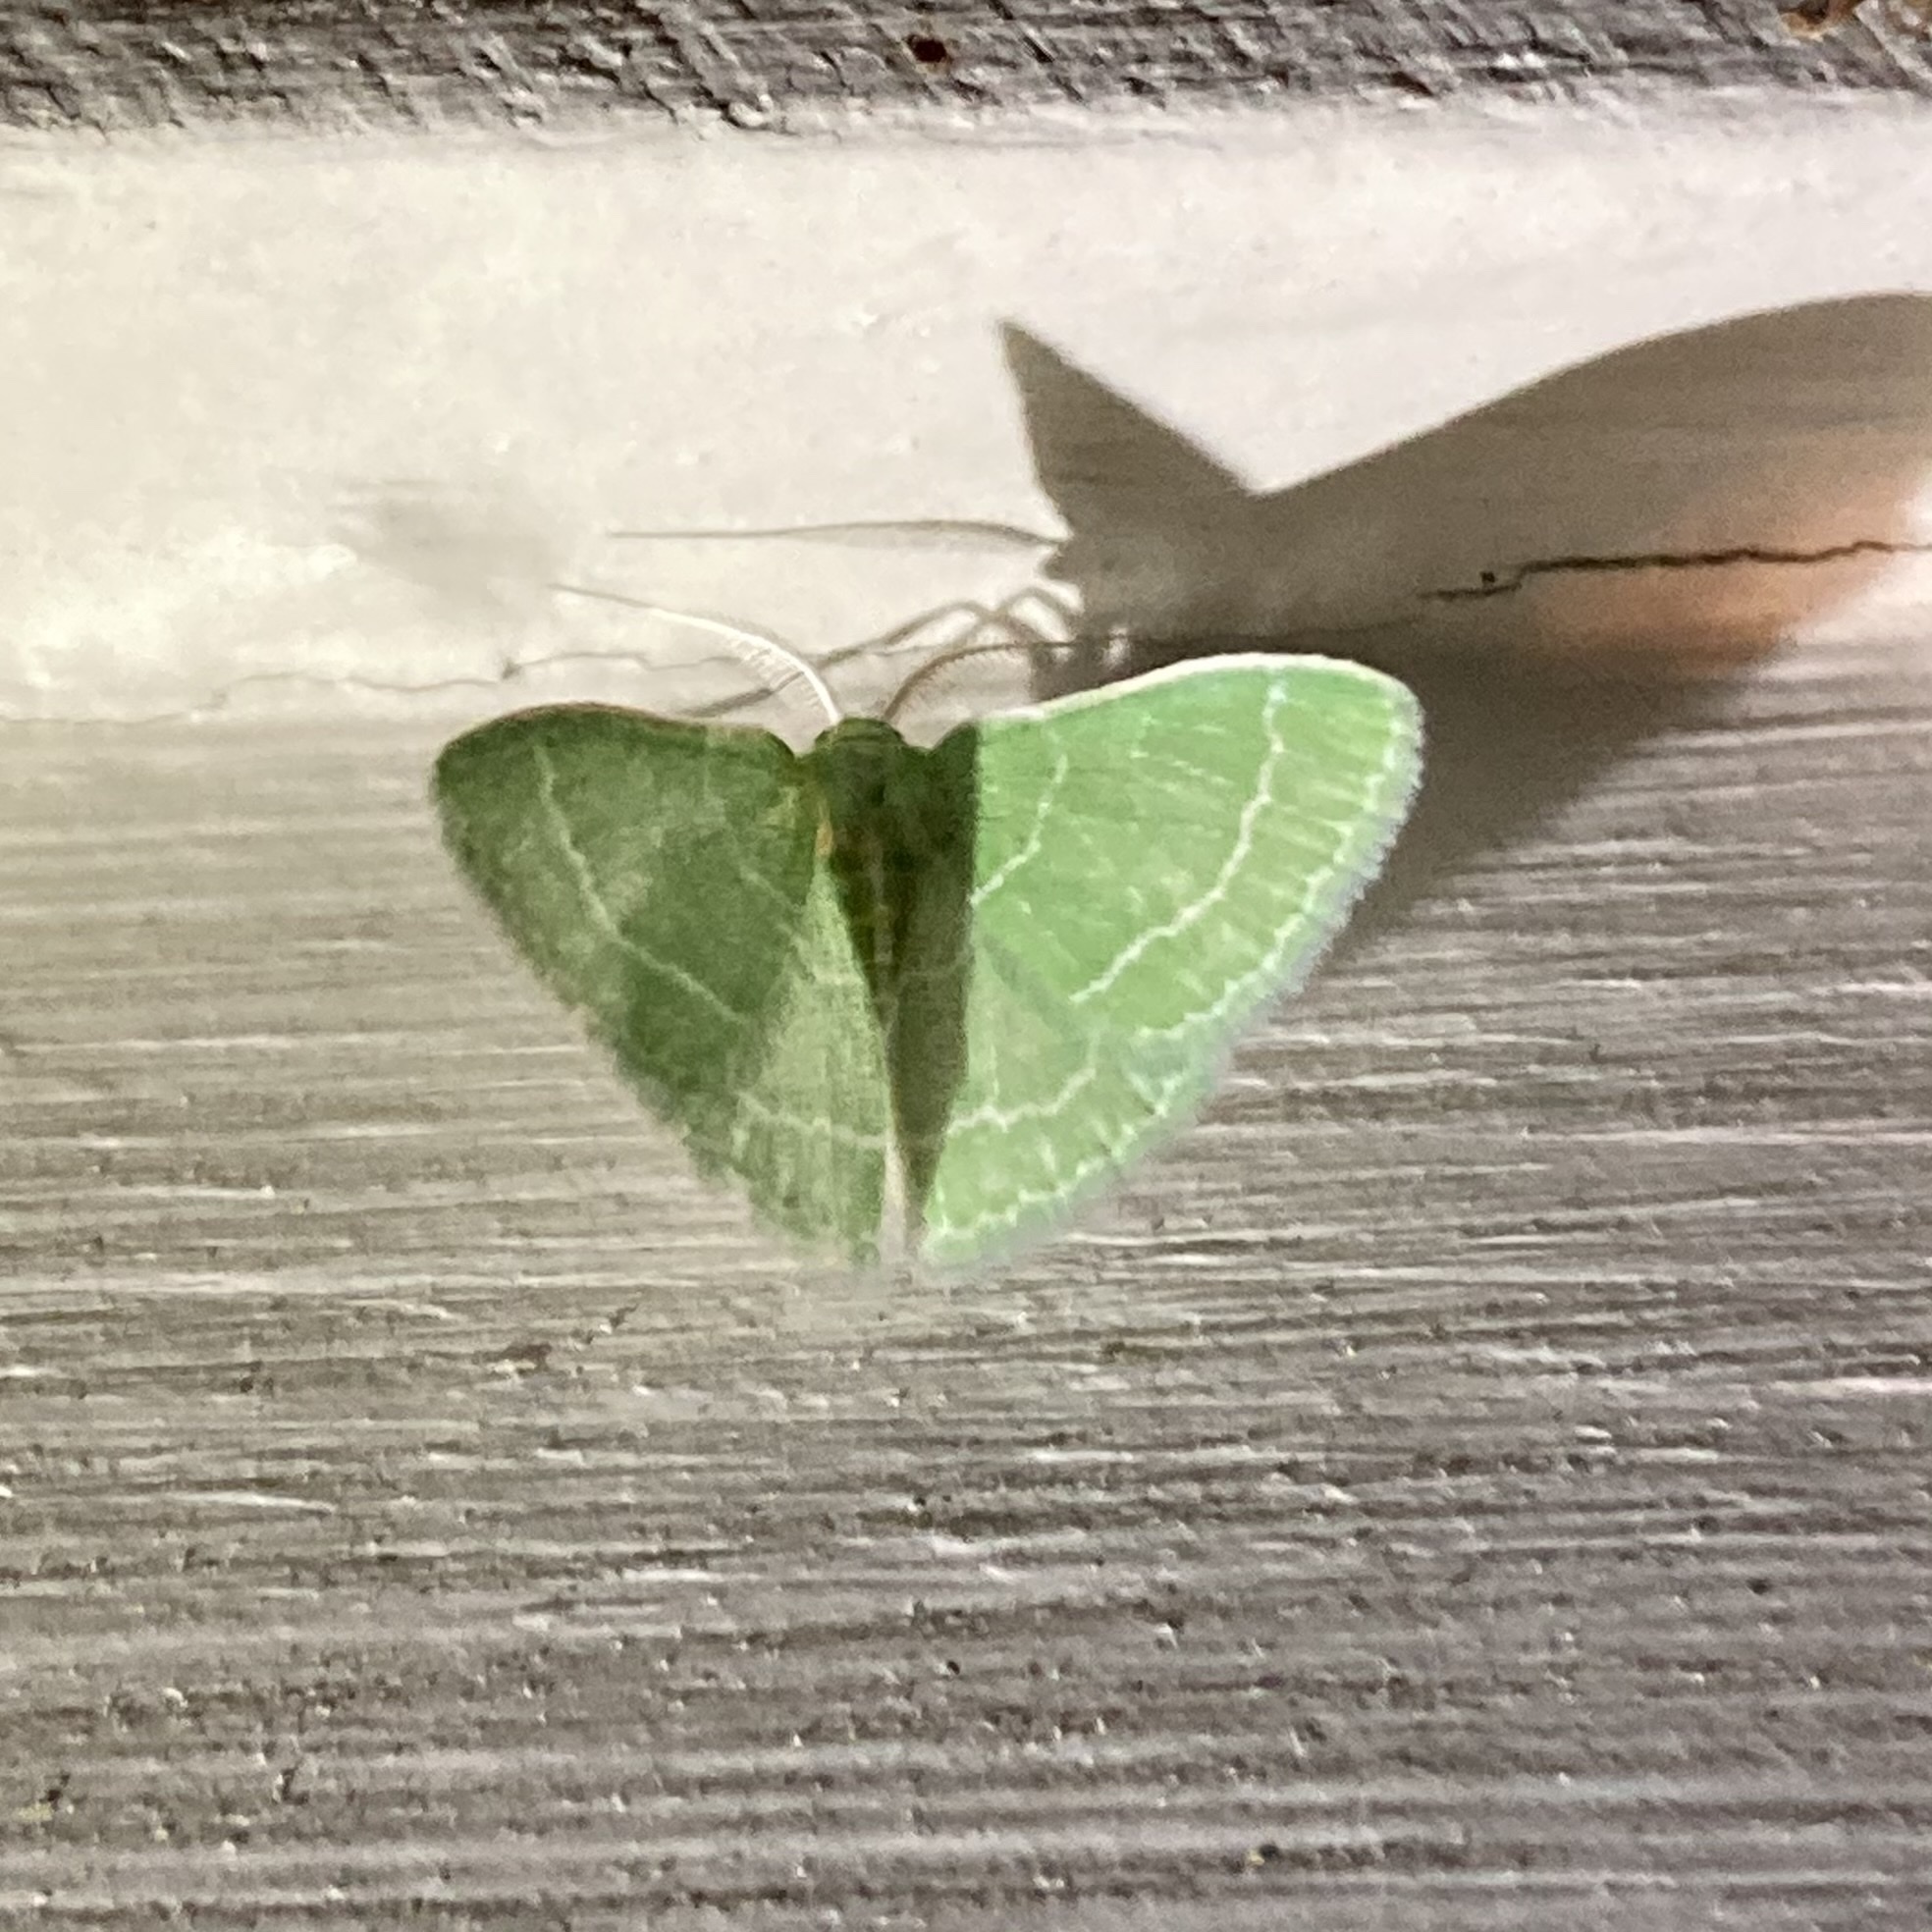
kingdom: Animalia
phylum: Arthropoda
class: Insecta
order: Lepidoptera
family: Geometridae
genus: Synchlora
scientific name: Synchlora aerata
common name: Wavy-lined emerald
